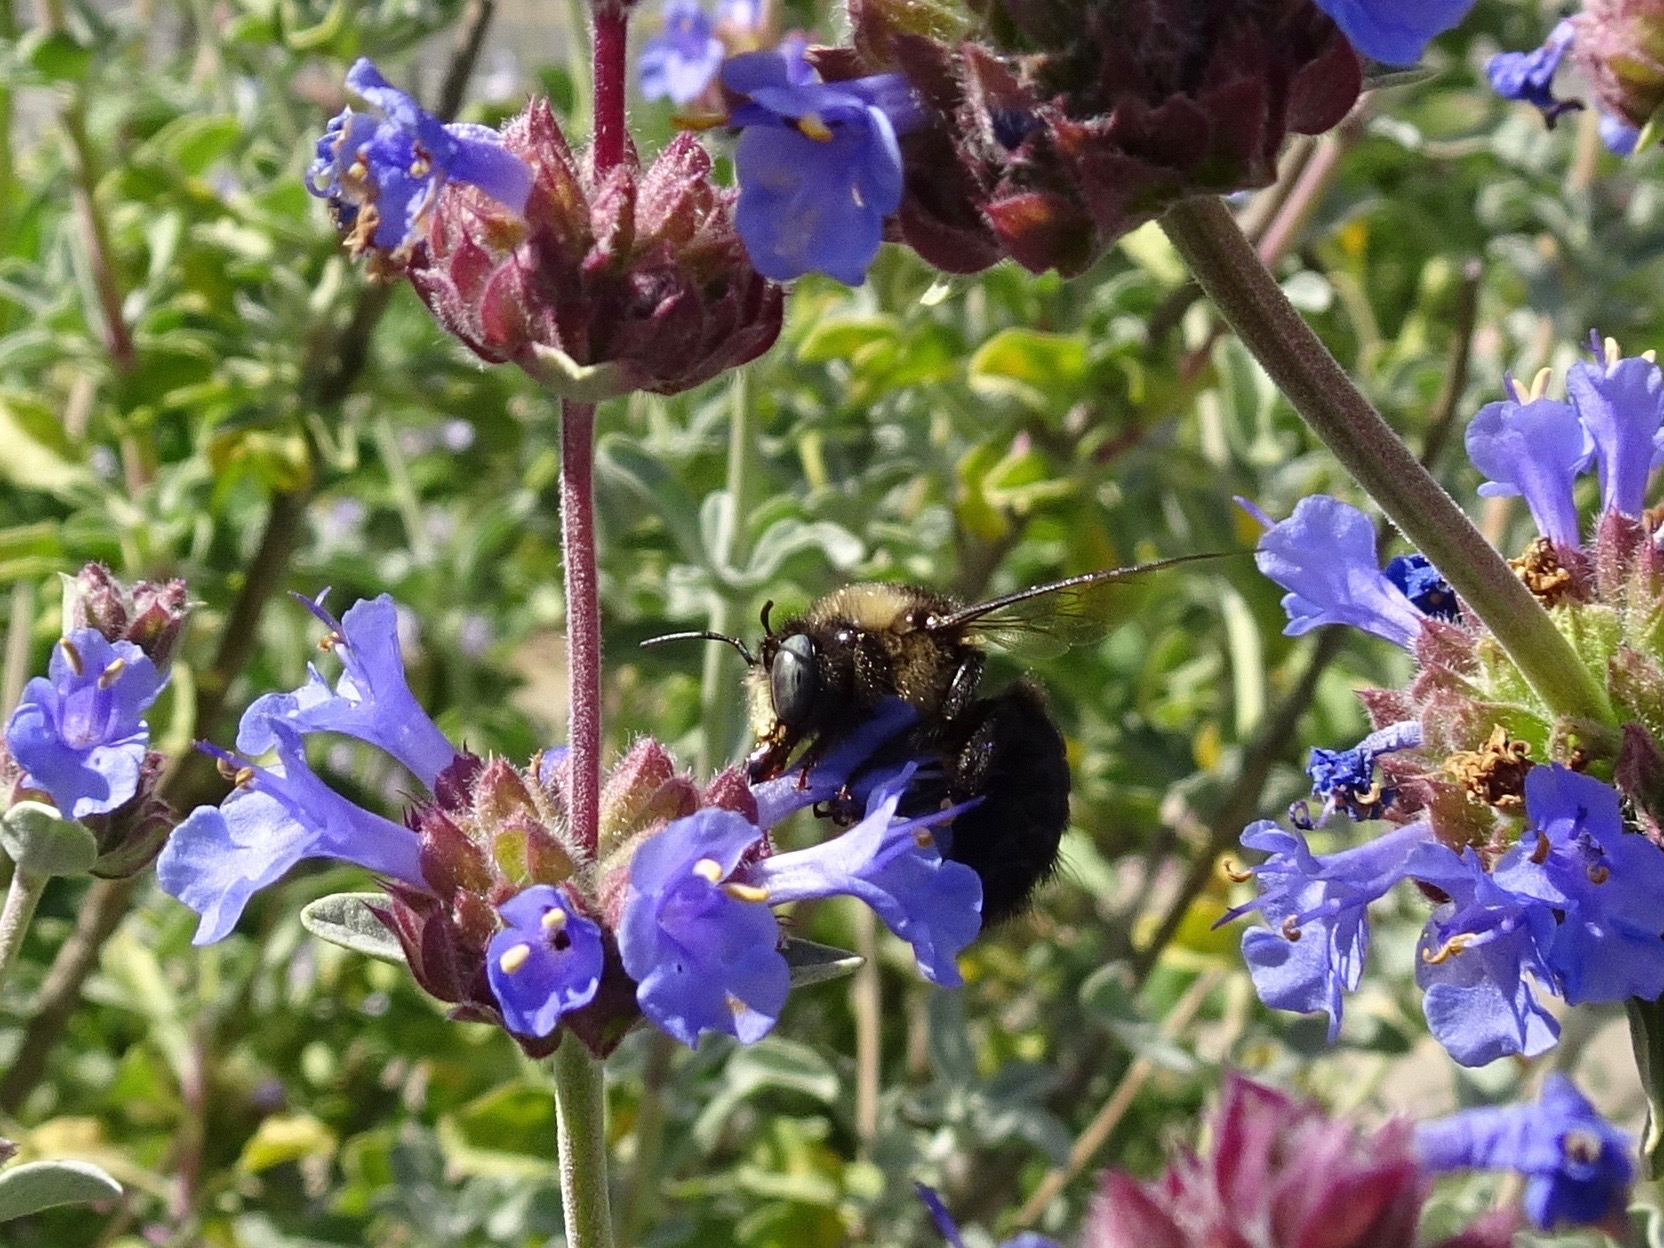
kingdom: Animalia
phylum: Arthropoda
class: Insecta
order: Hymenoptera
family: Apidae
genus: Xylocopa
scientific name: Xylocopa tabaniformis
